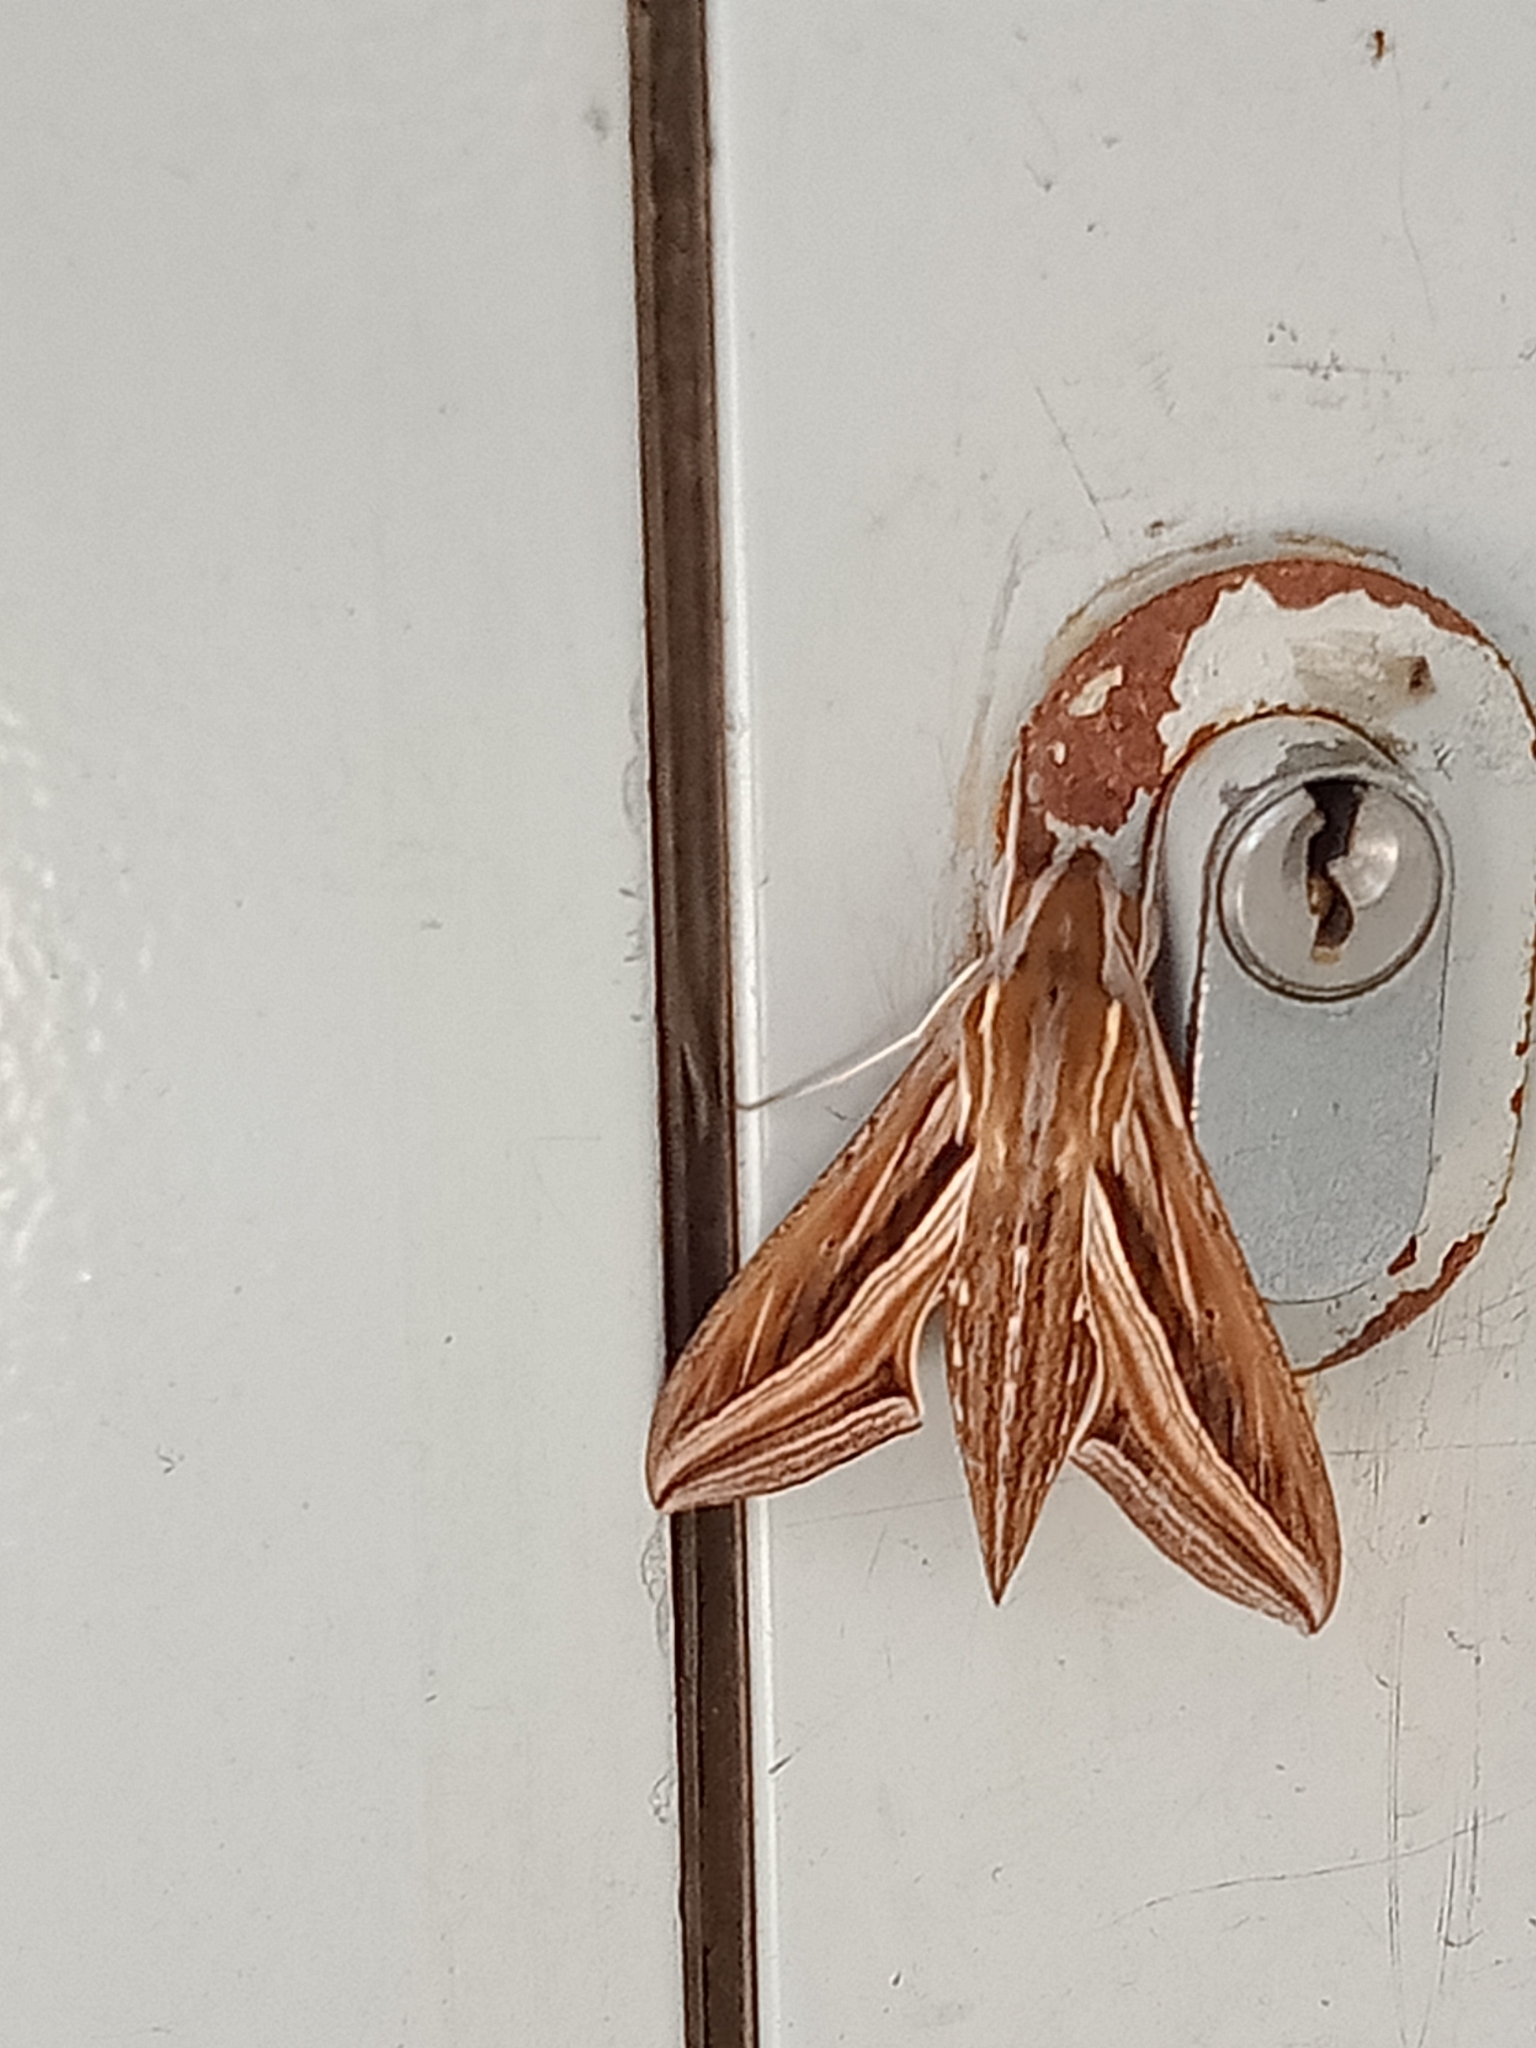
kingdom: Animalia
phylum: Arthropoda
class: Insecta
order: Lepidoptera
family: Sphingidae
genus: Hippotion
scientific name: Hippotion celerio
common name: Silver-striped hawk-moth
